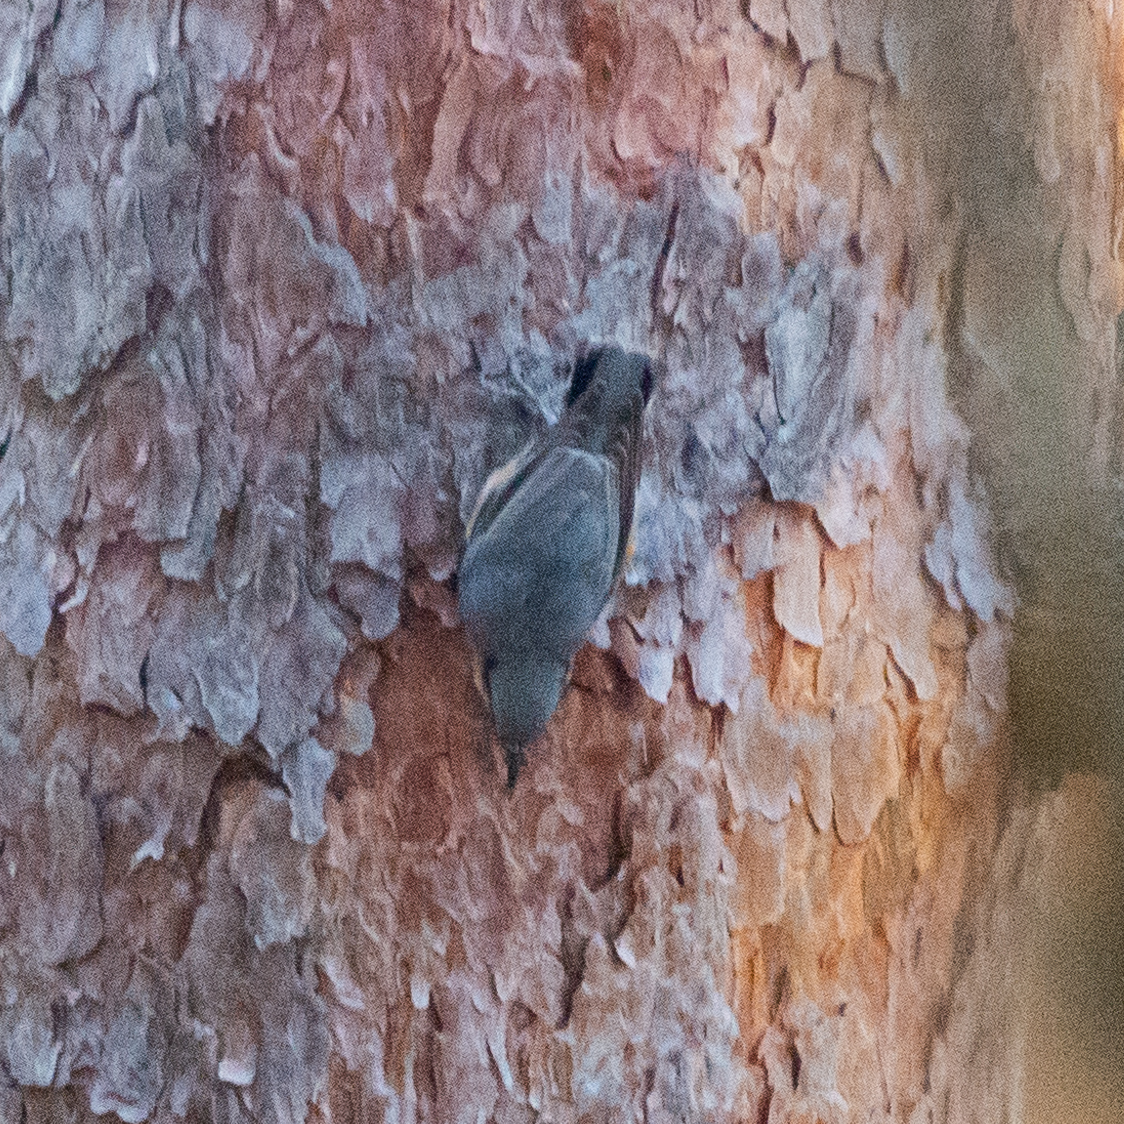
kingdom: Animalia
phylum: Chordata
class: Aves
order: Passeriformes
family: Sittidae
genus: Sitta
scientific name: Sitta europaea
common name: Eurasian nuthatch
